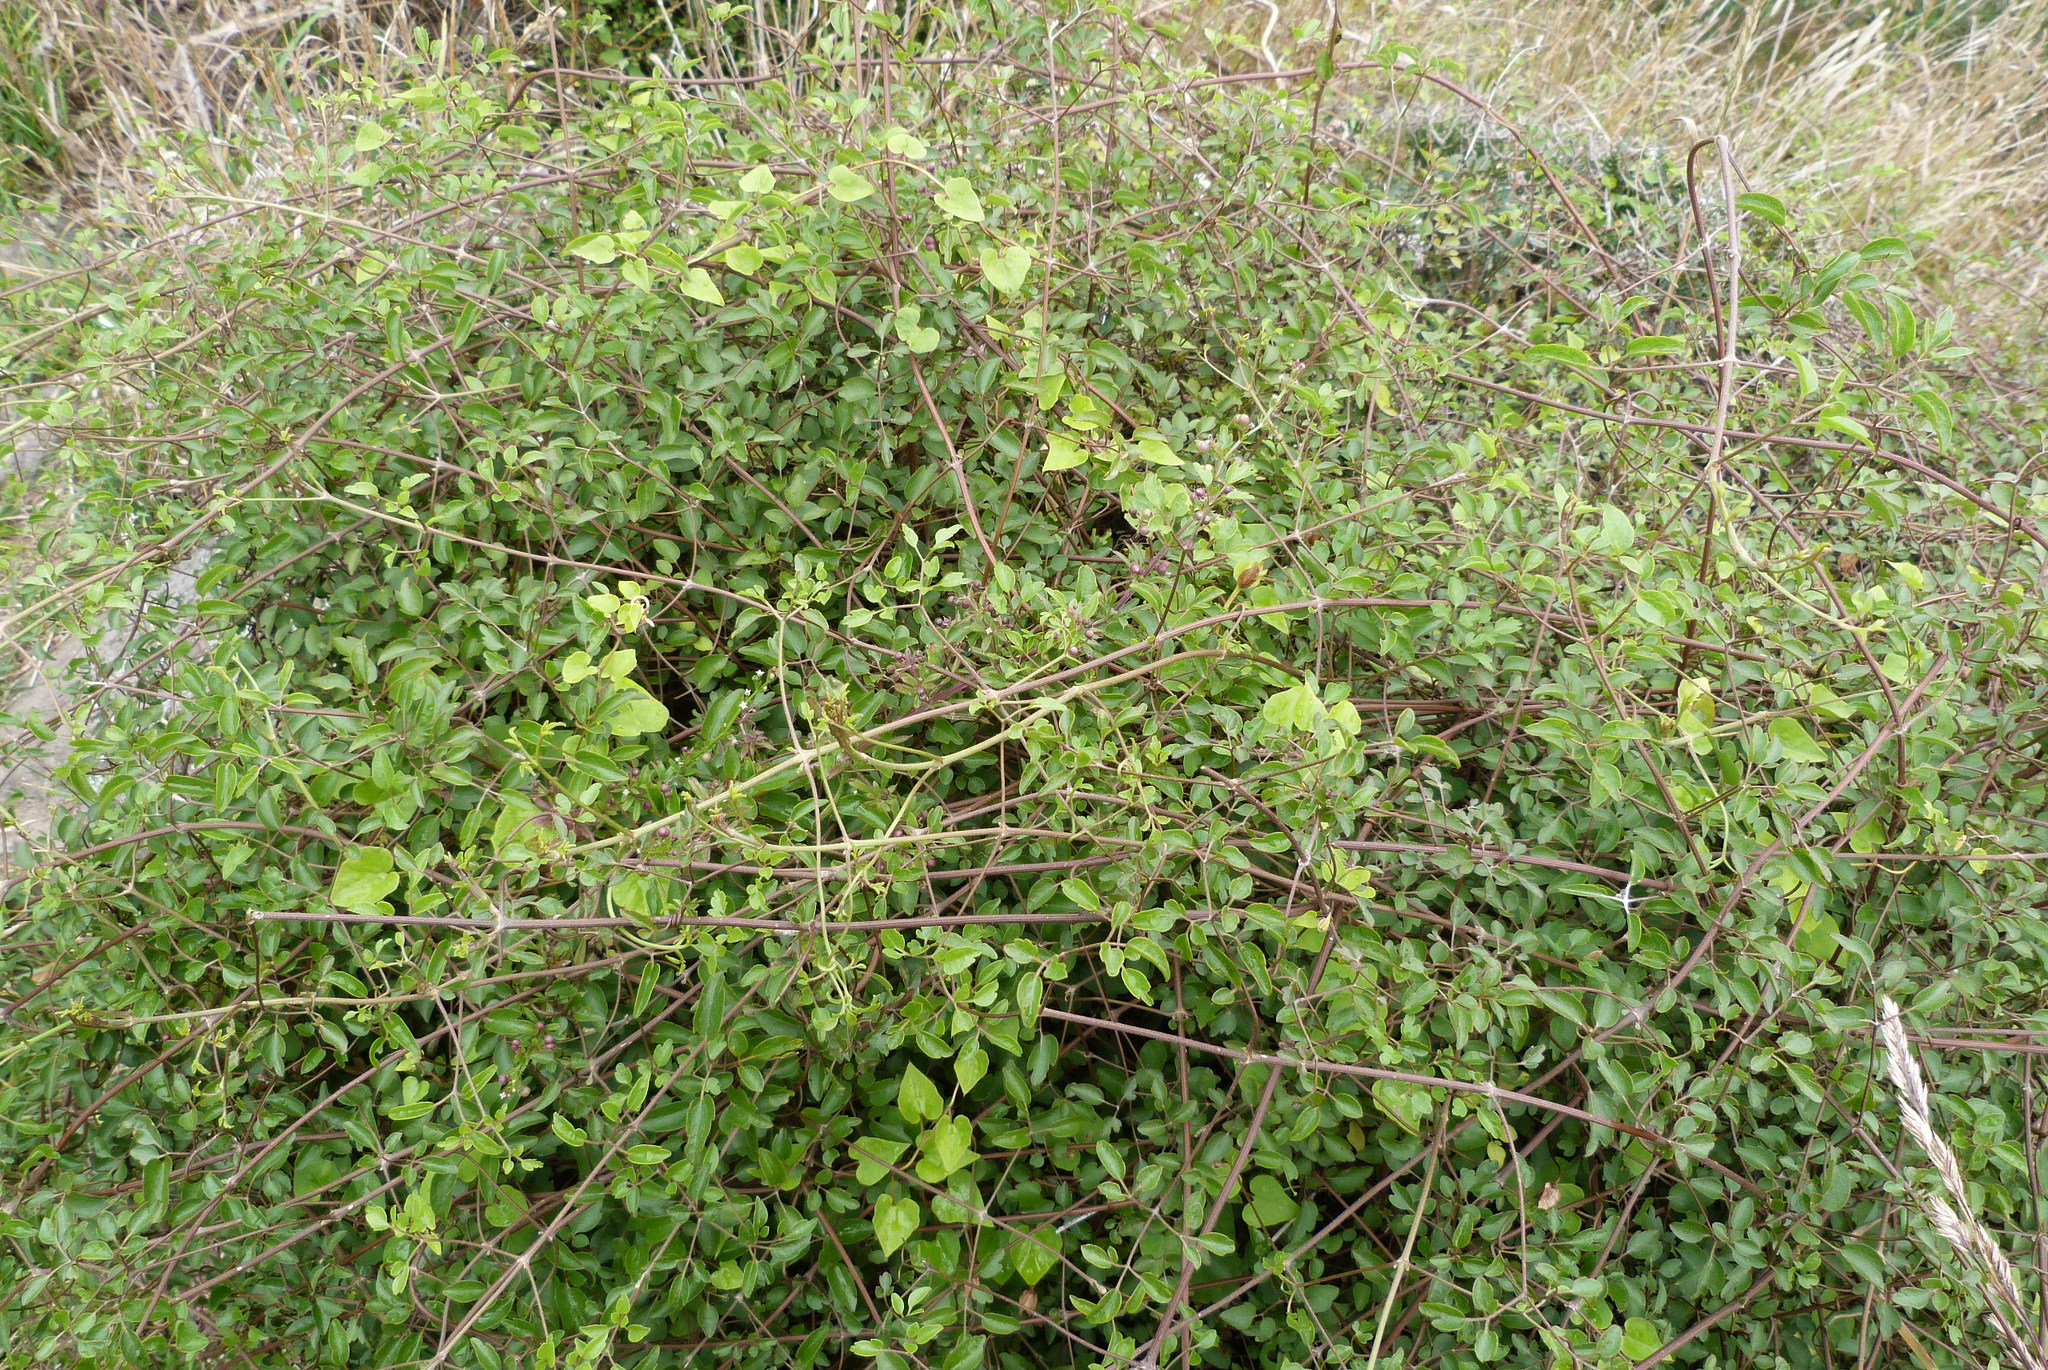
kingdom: Plantae
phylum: Tracheophyta
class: Magnoliopsida
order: Ranunculales
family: Ranunculaceae
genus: Clematis
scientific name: Clematis forsteri
